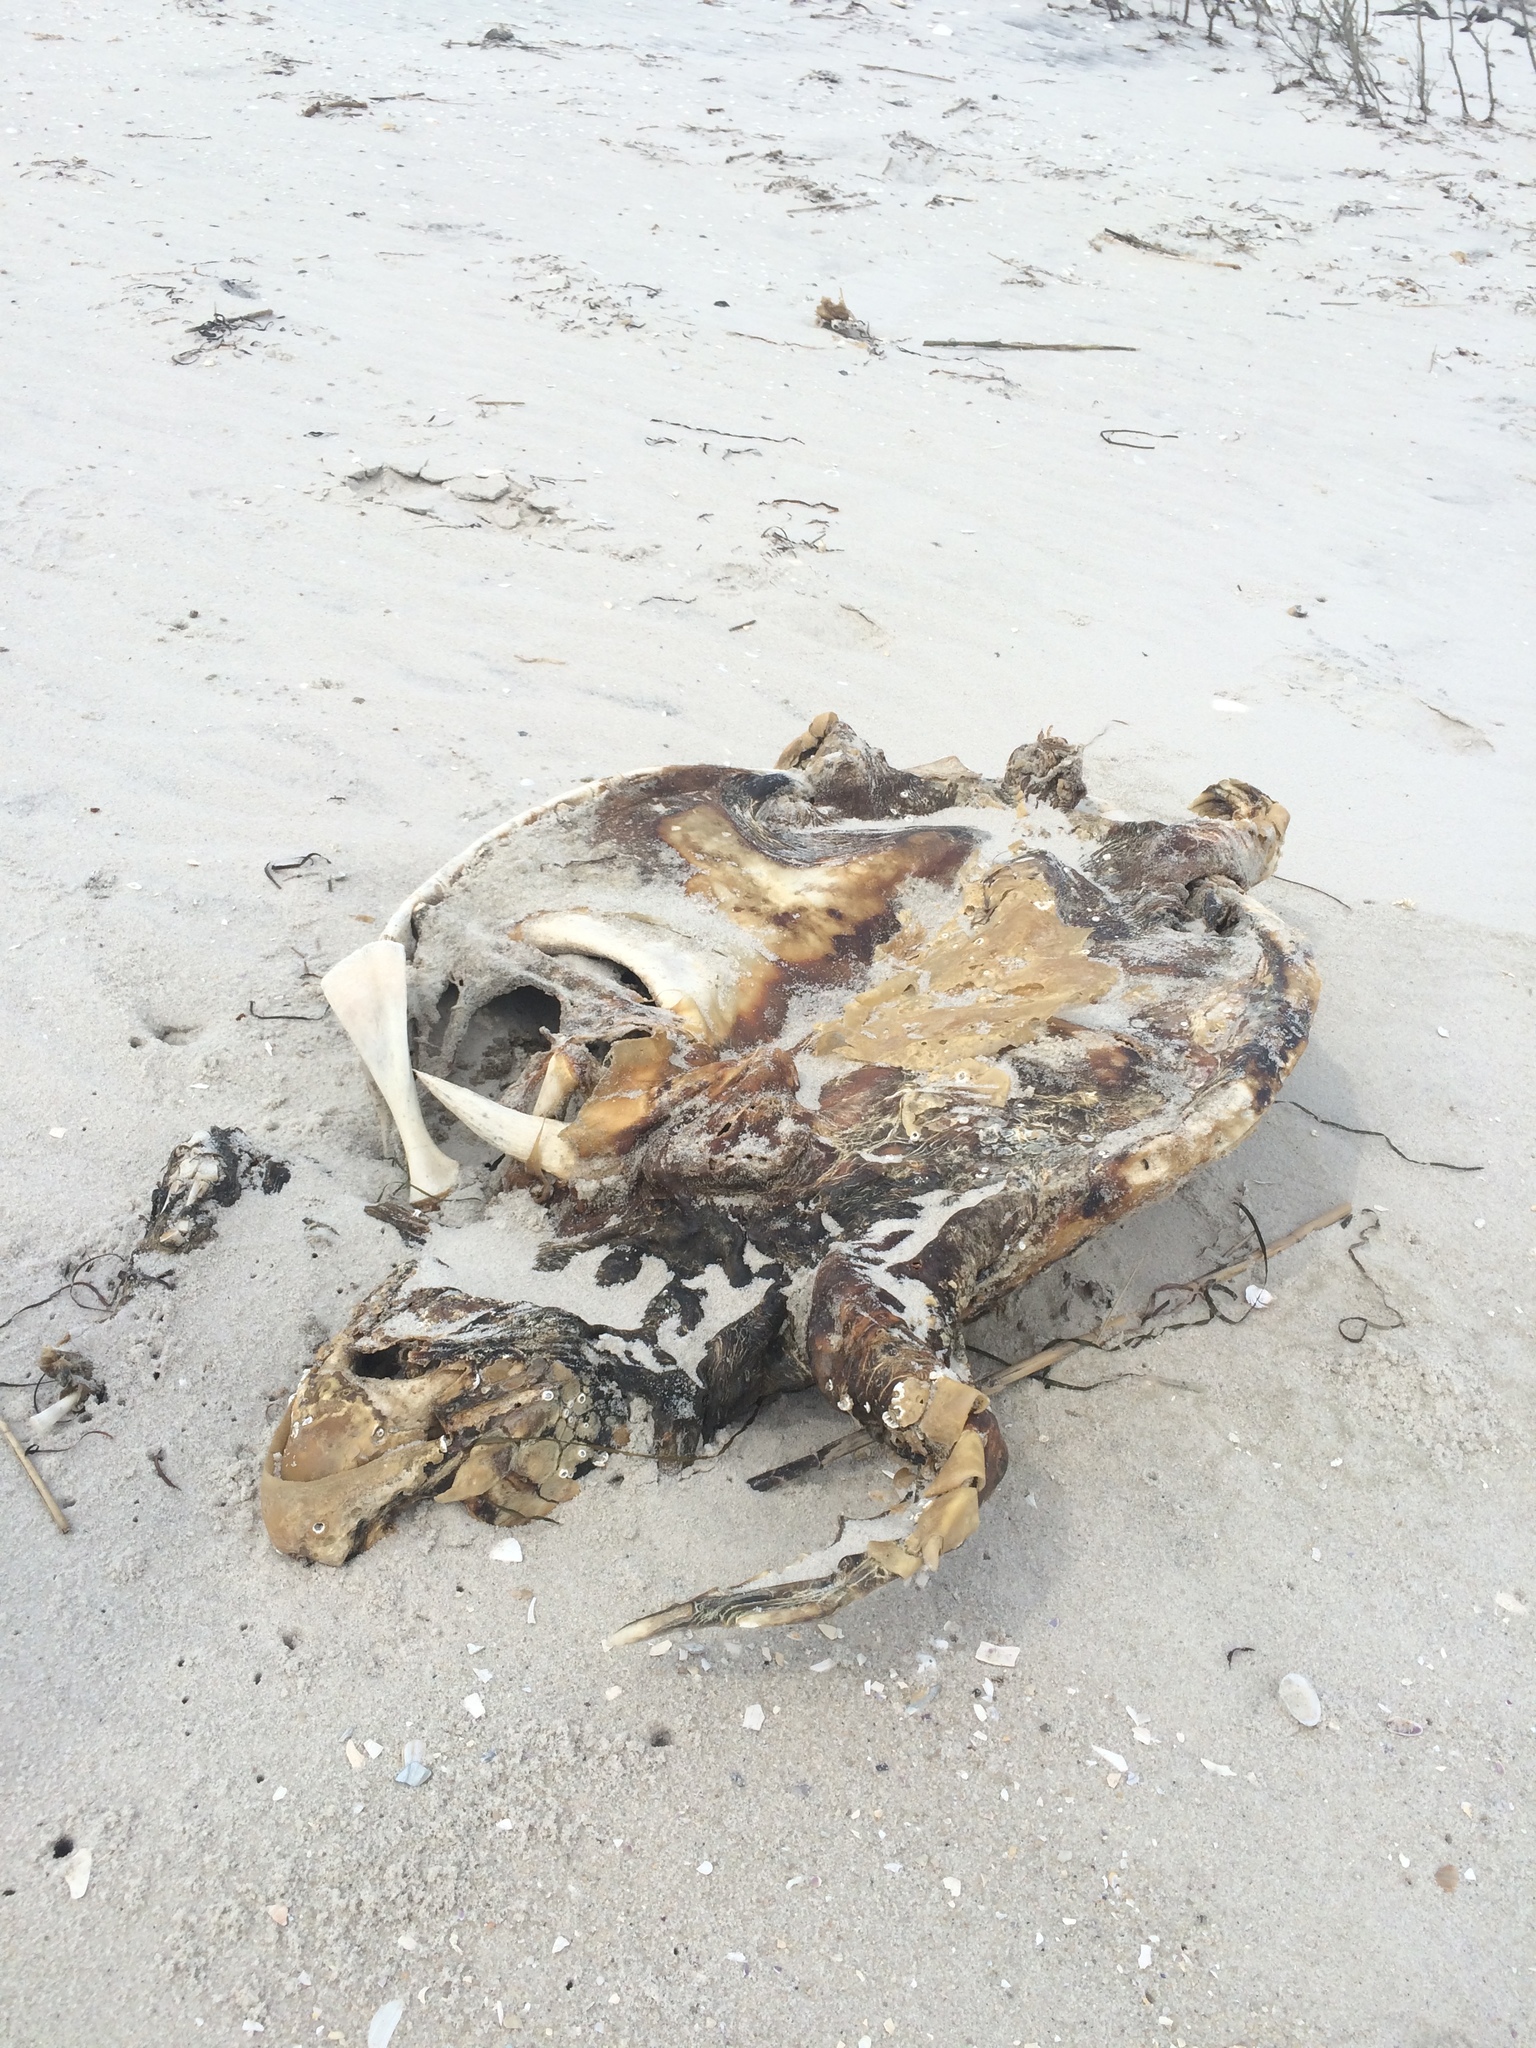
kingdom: Animalia
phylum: Chordata
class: Testudines
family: Cheloniidae
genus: Caretta
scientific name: Caretta caretta
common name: Loggerhead sea turtle
